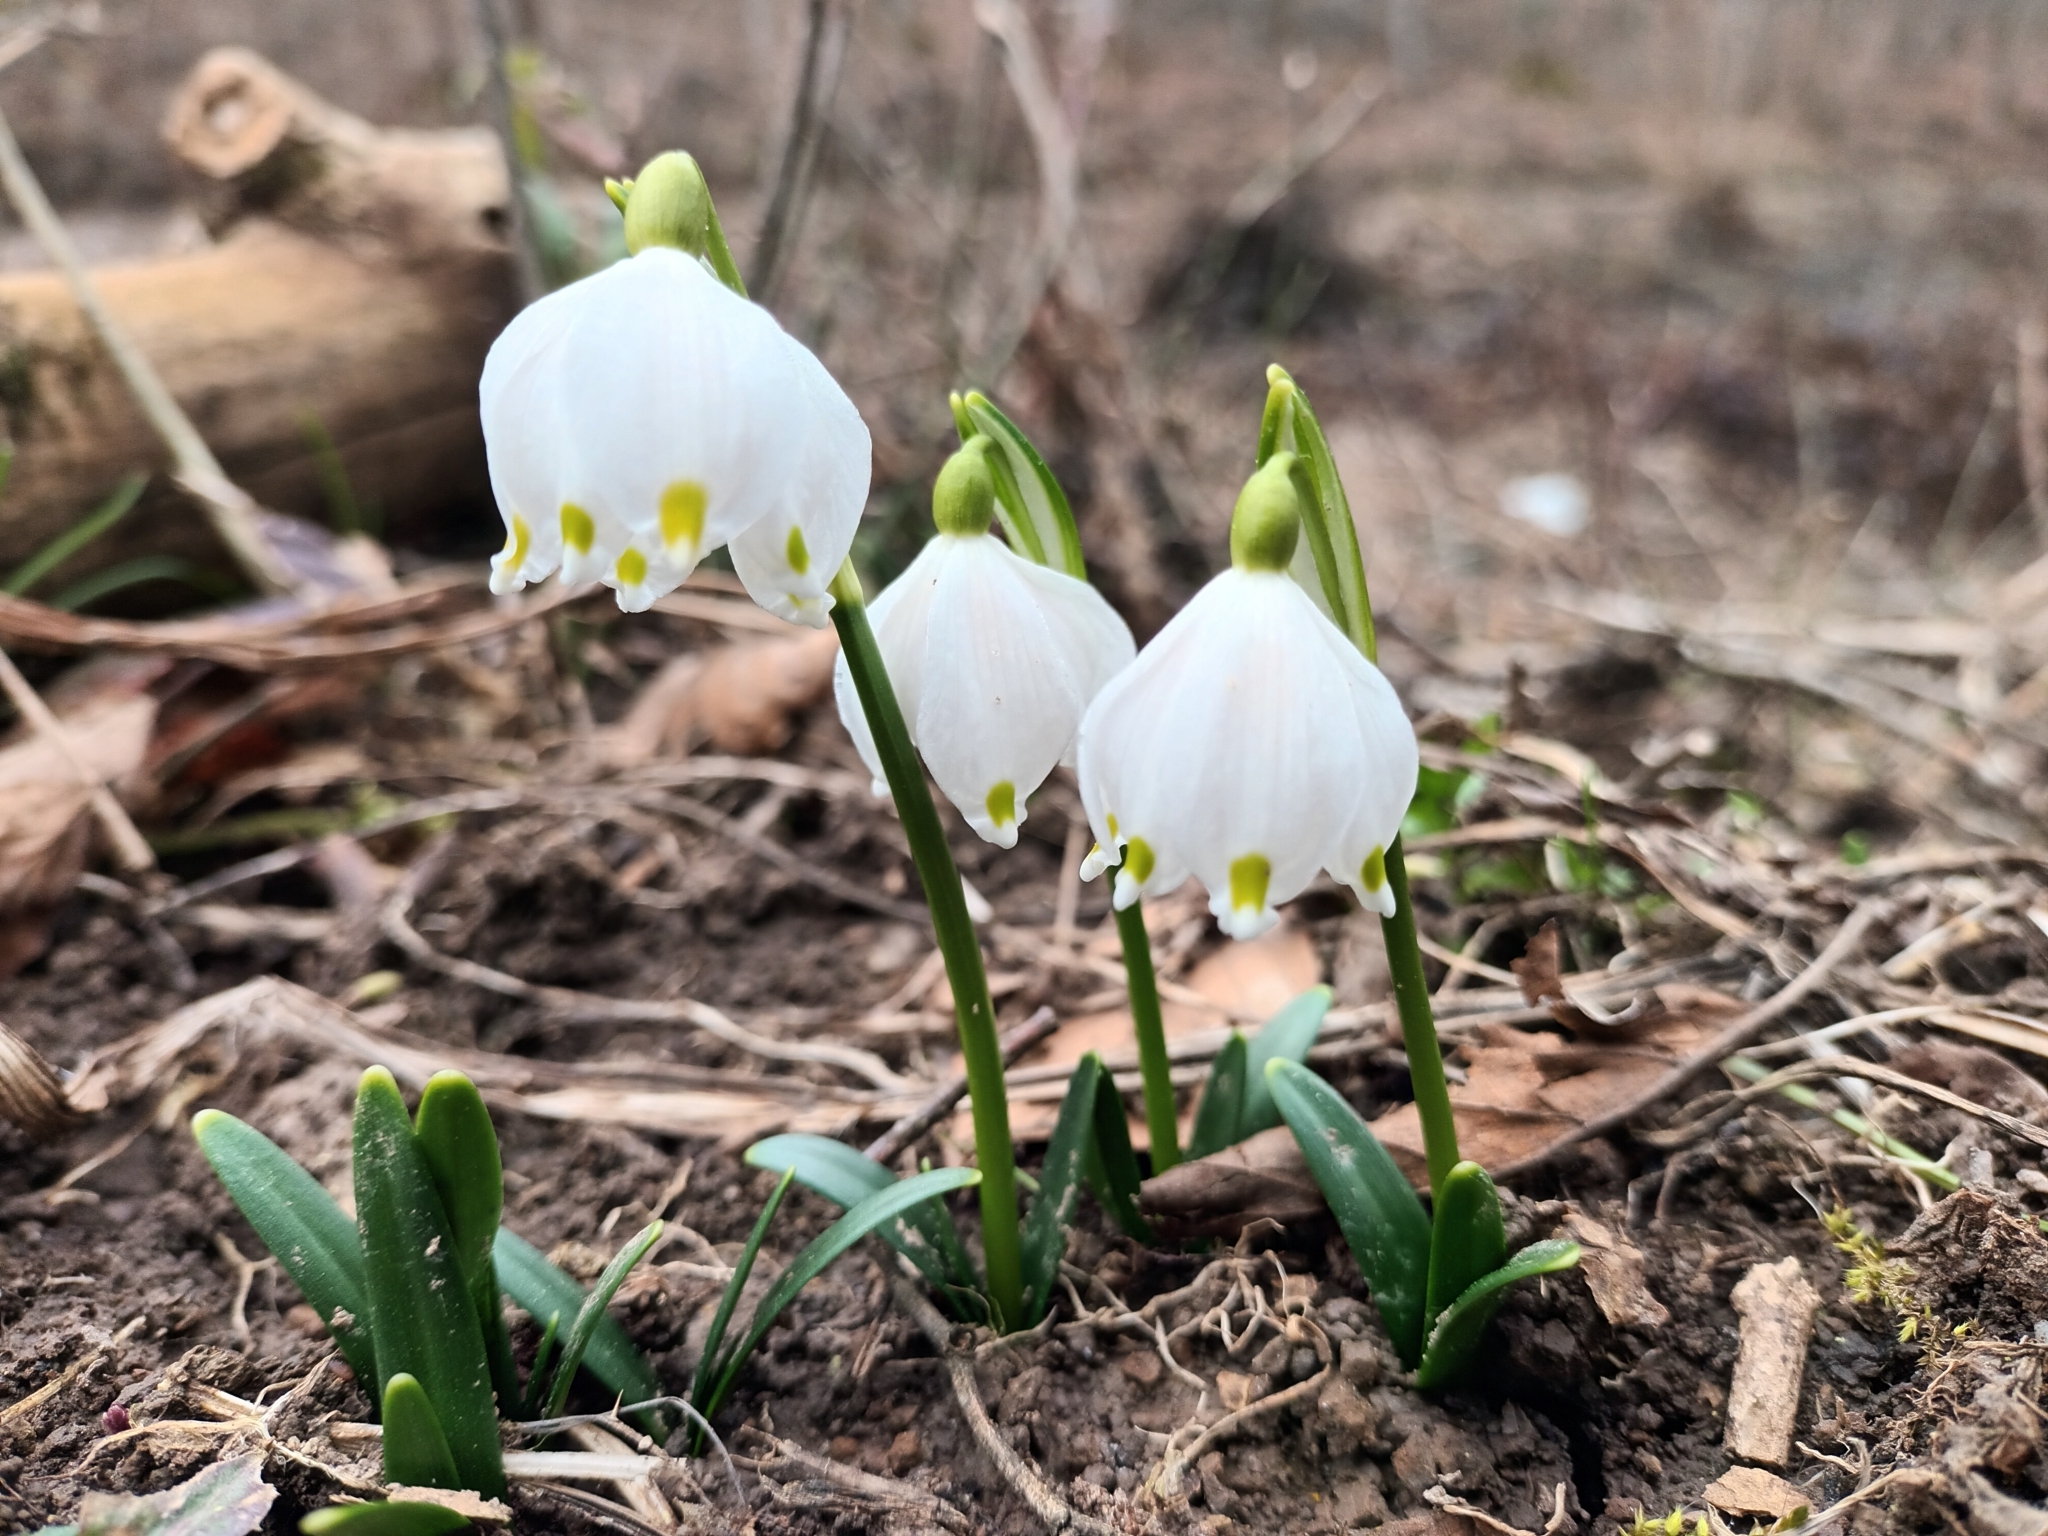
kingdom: Plantae
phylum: Tracheophyta
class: Liliopsida
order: Asparagales
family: Amaryllidaceae
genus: Leucojum
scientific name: Leucojum vernum
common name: Spring snowflake
